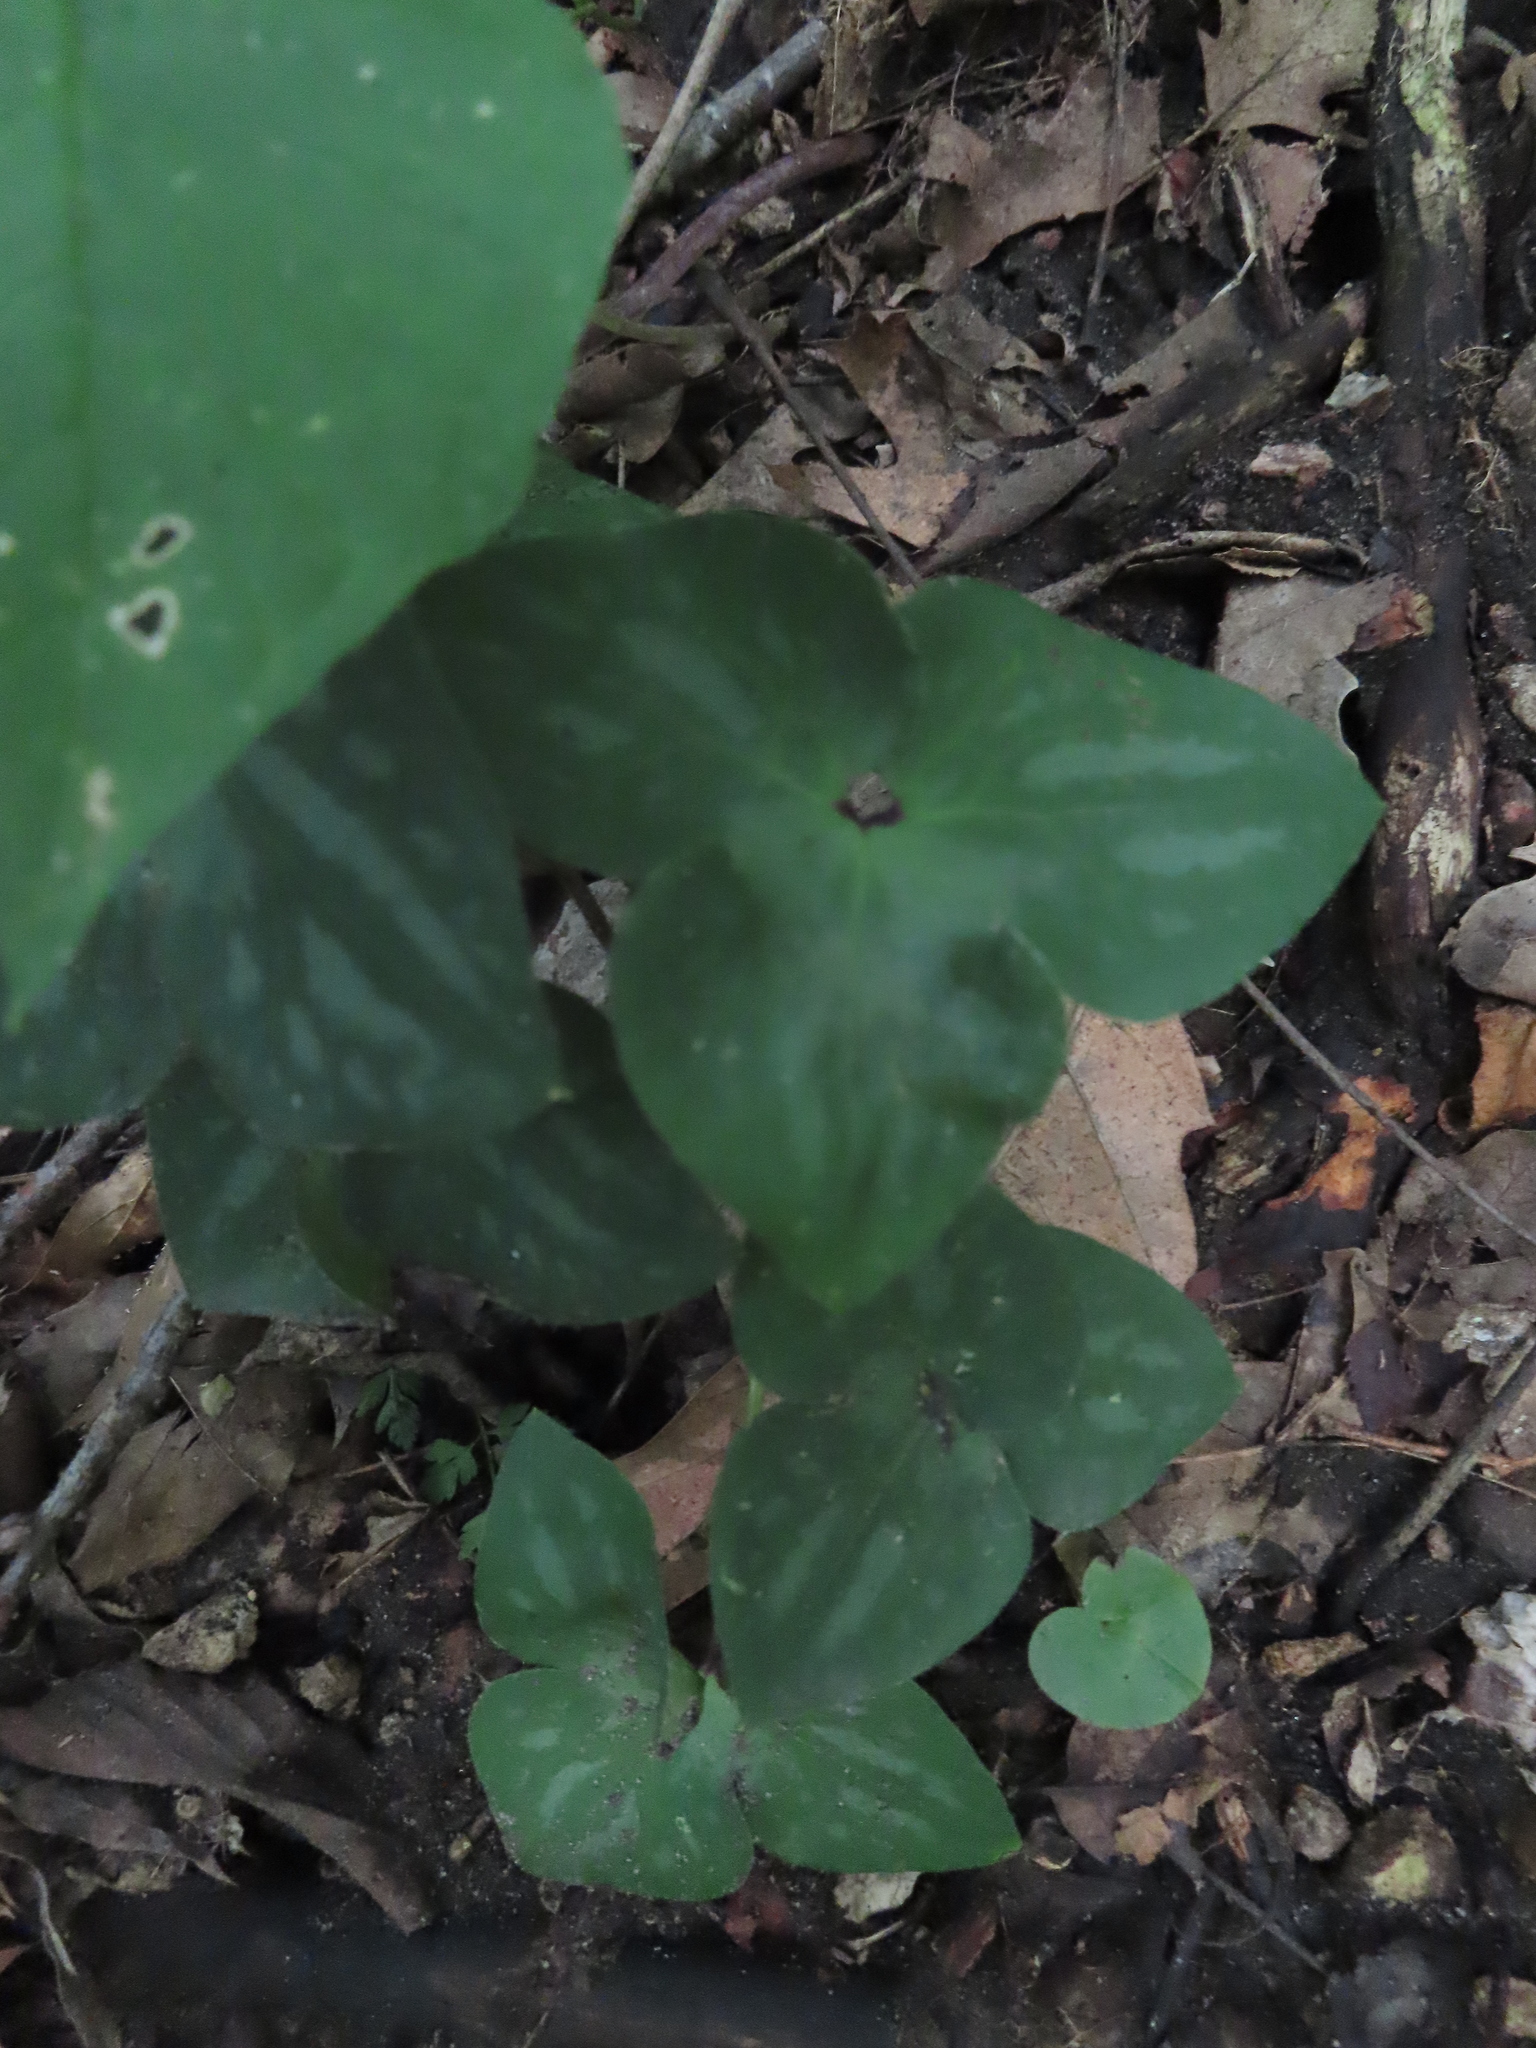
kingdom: Plantae
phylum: Tracheophyta
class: Magnoliopsida
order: Ranunculales
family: Ranunculaceae
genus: Hepatica
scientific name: Hepatica acutiloba
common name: Sharp-lobed hepatica
